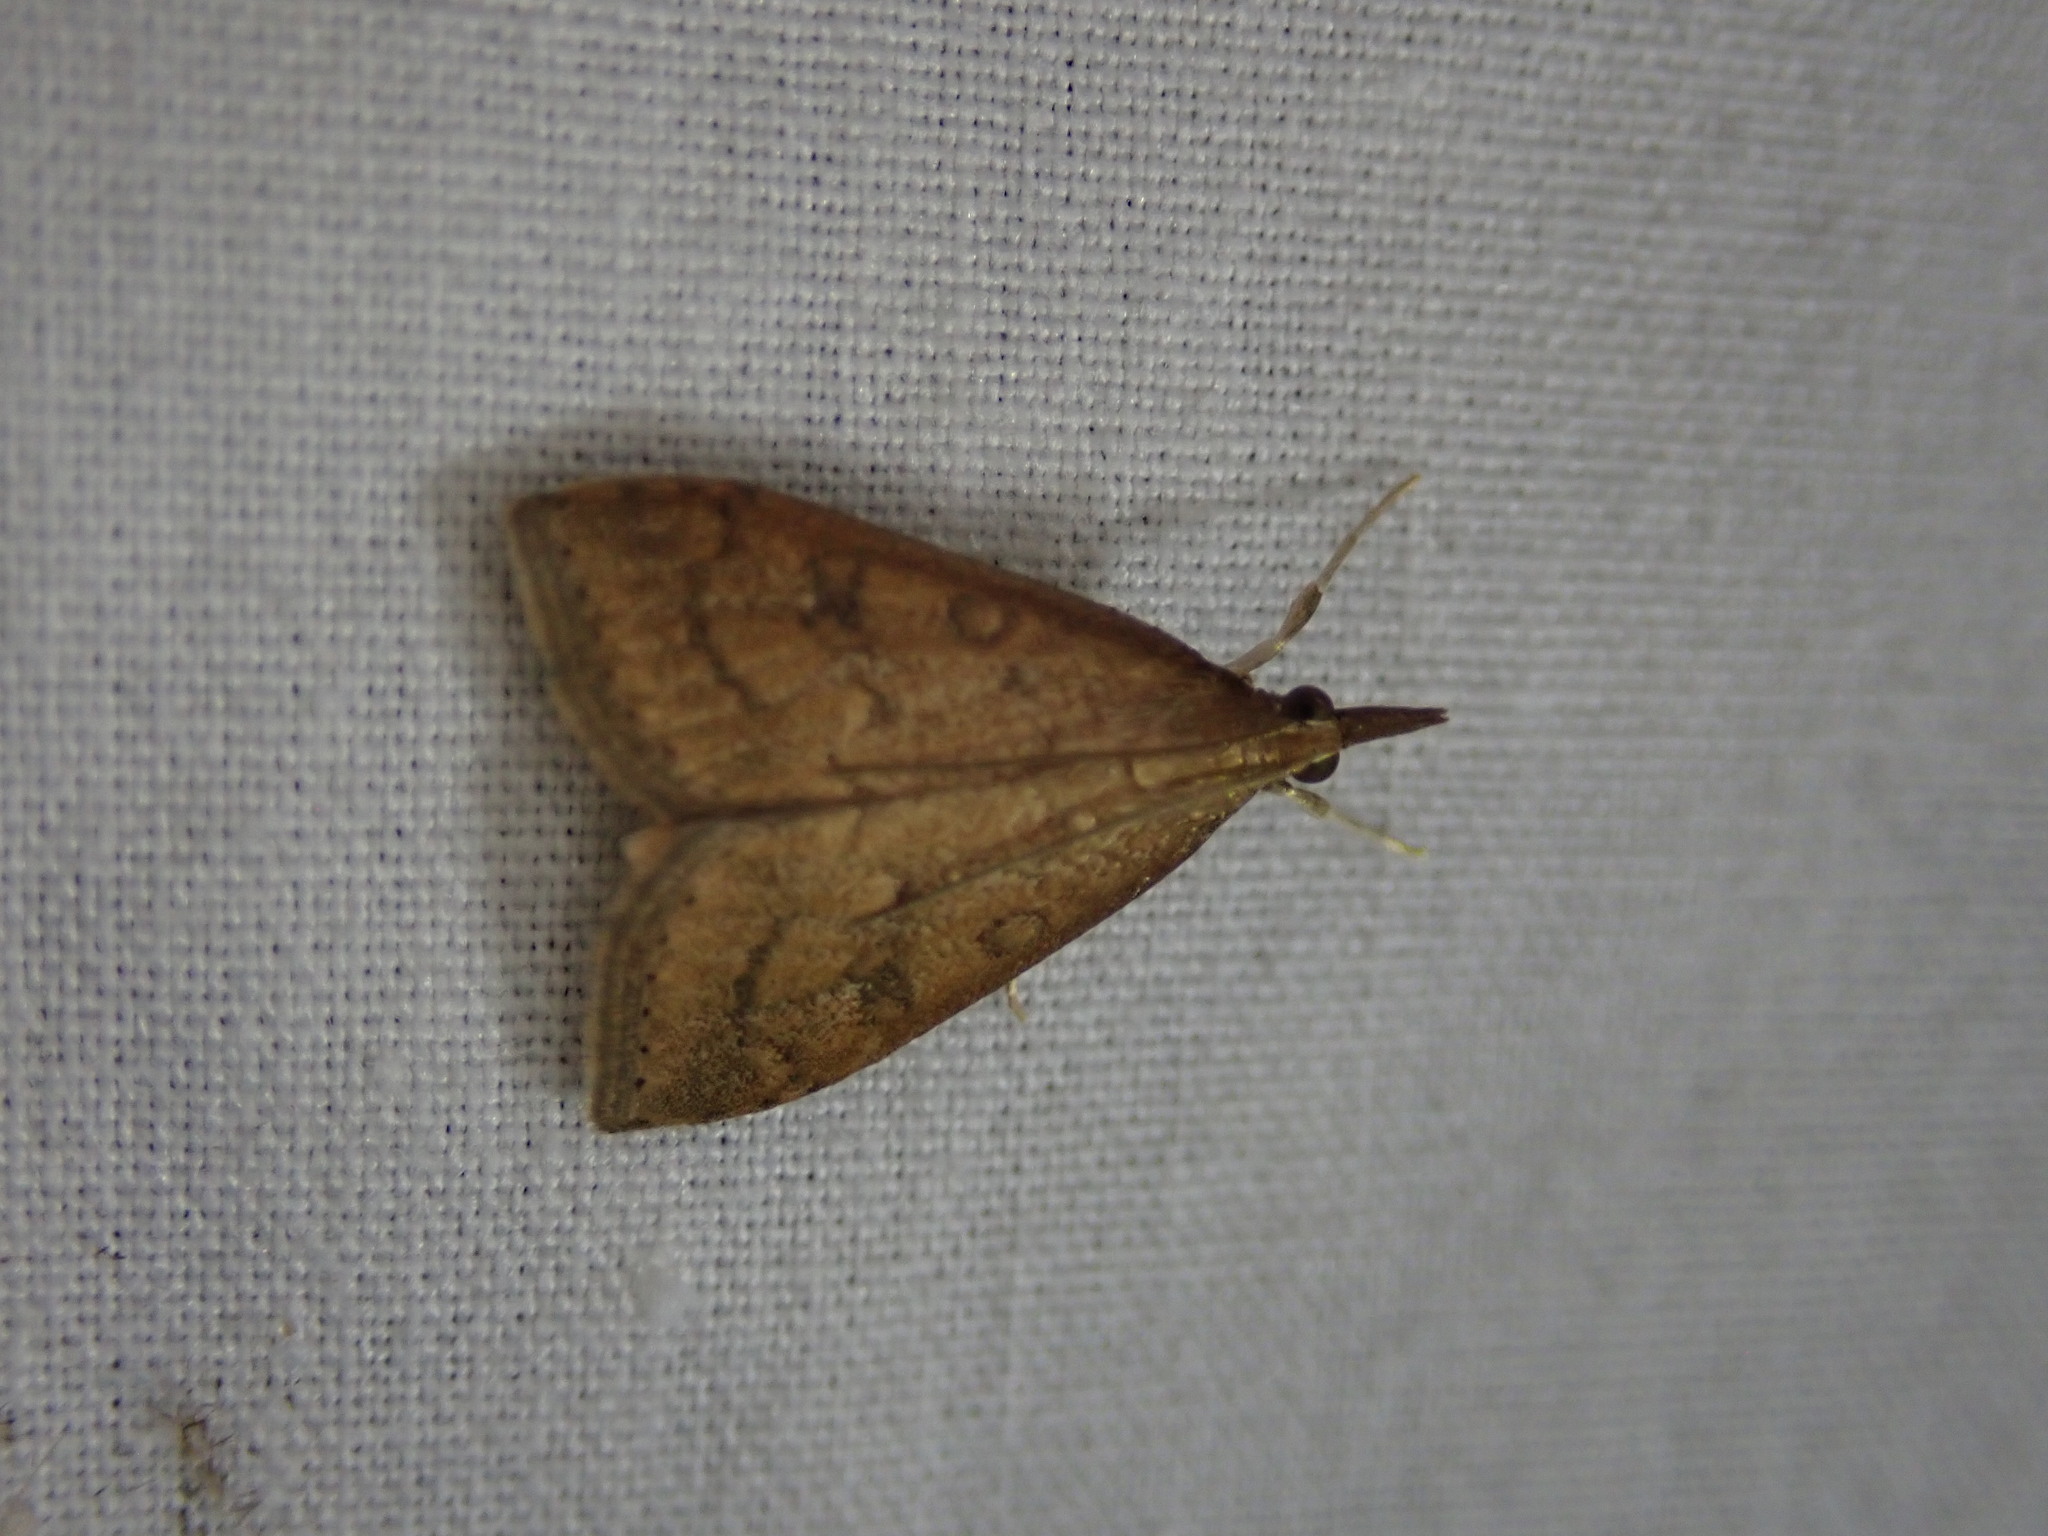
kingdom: Animalia
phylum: Arthropoda
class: Insecta
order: Lepidoptera
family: Crambidae
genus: Udea
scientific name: Udea rubigalis
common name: Celery leaftier moth
